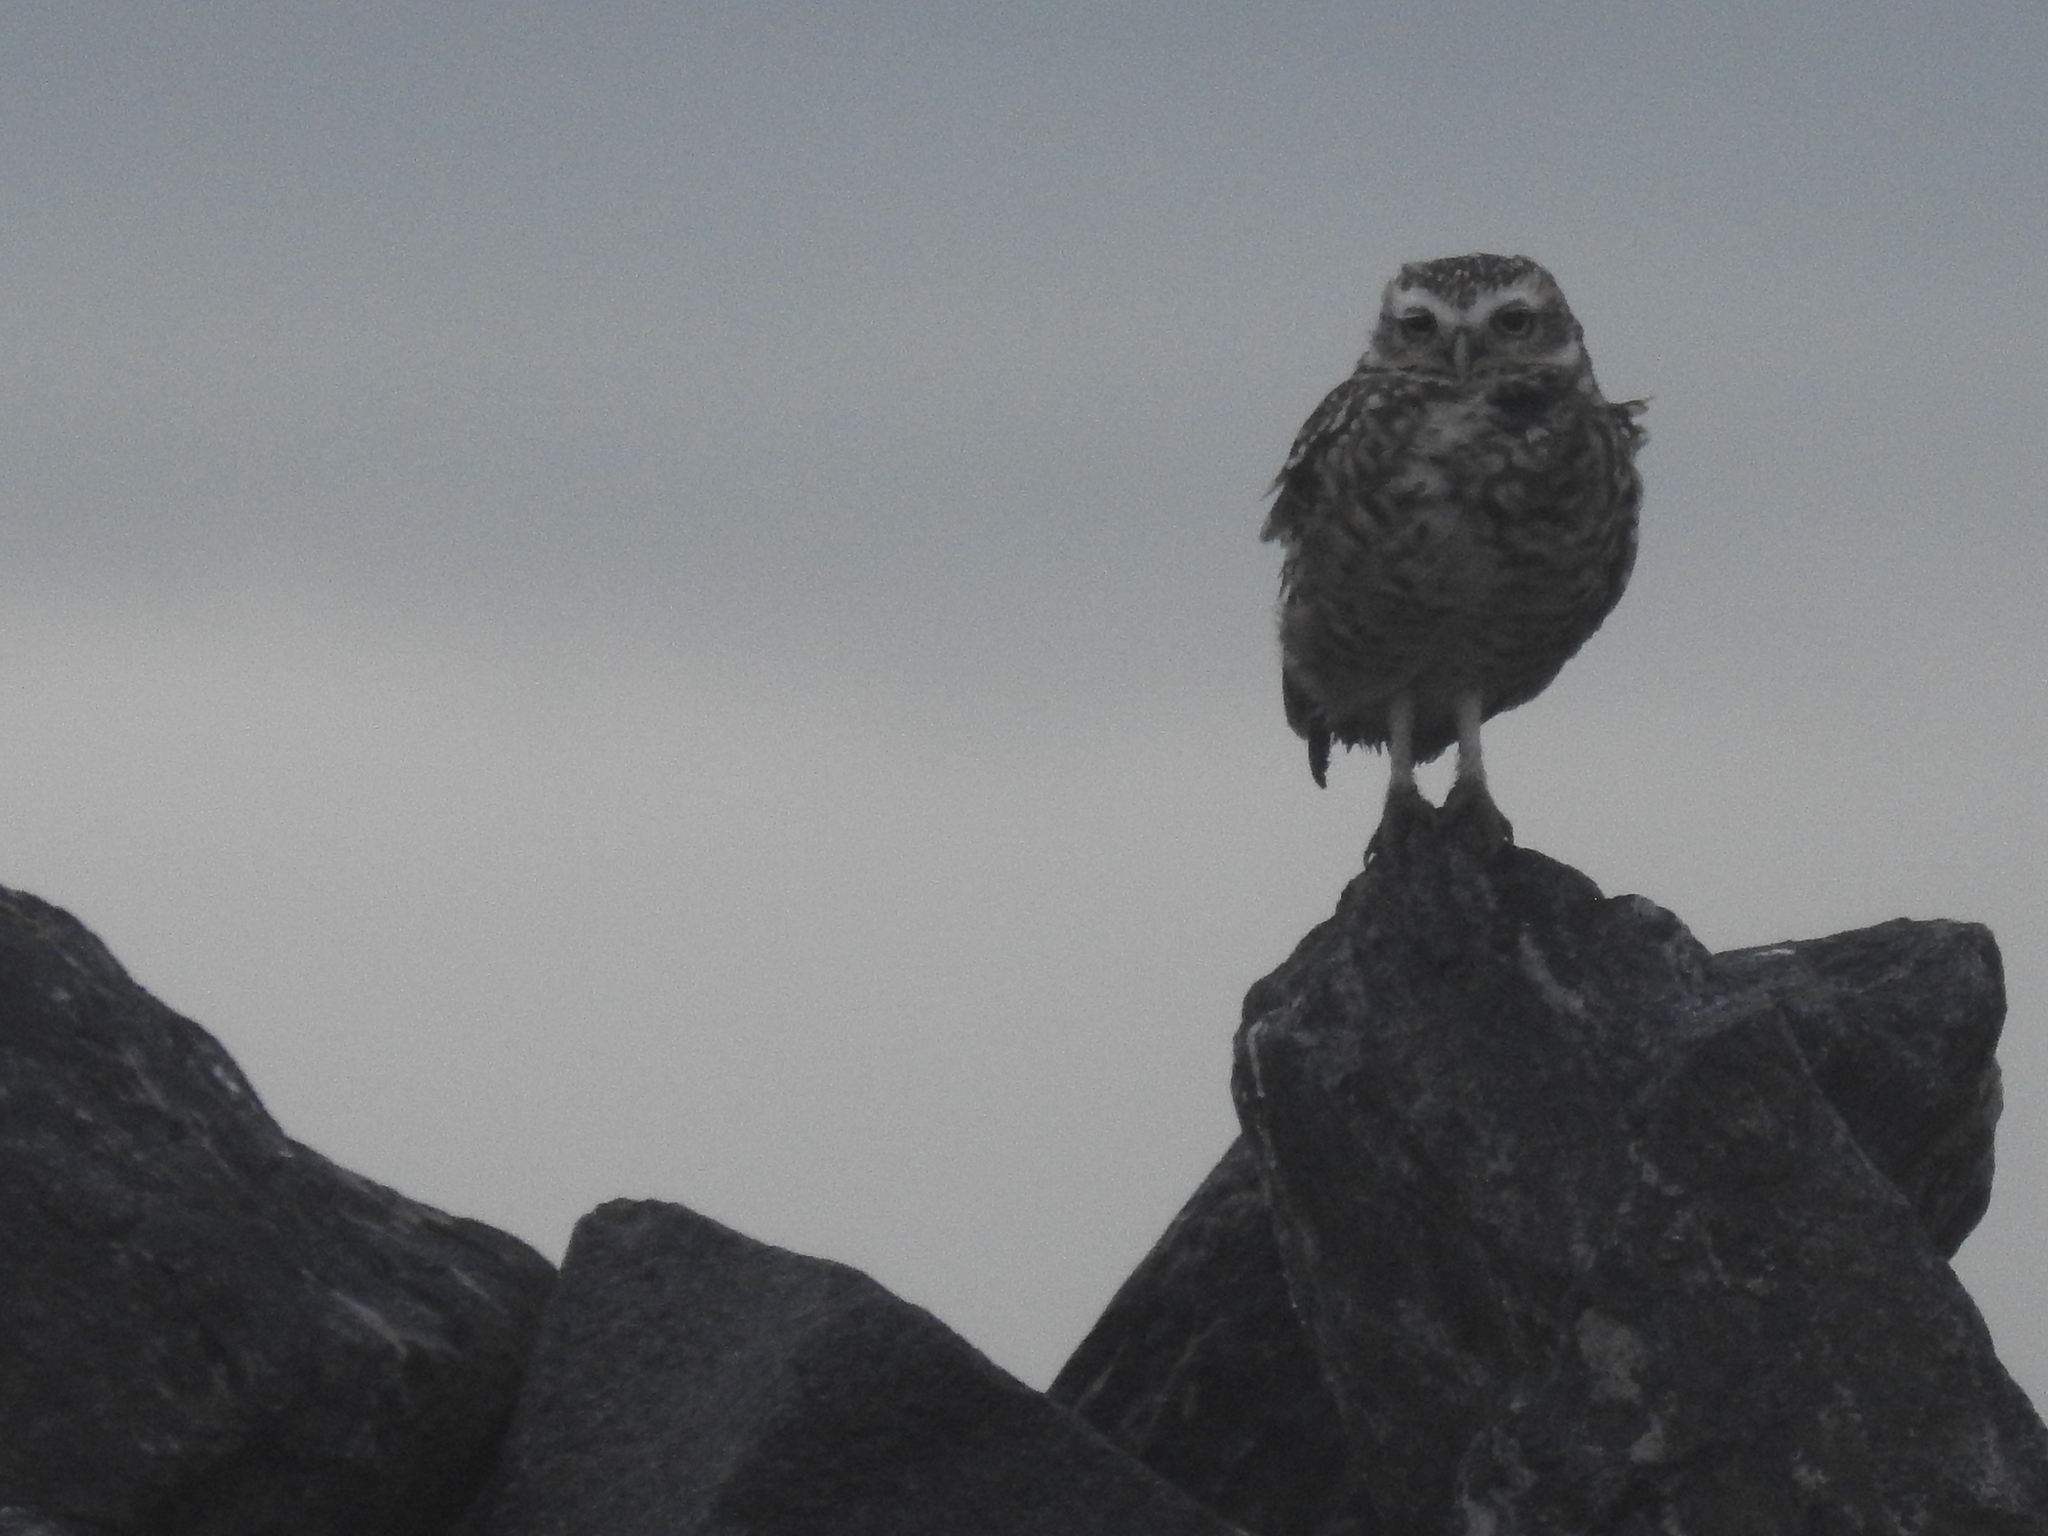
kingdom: Animalia
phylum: Chordata
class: Aves
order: Strigiformes
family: Strigidae
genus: Athene
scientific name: Athene cunicularia
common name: Burrowing owl
